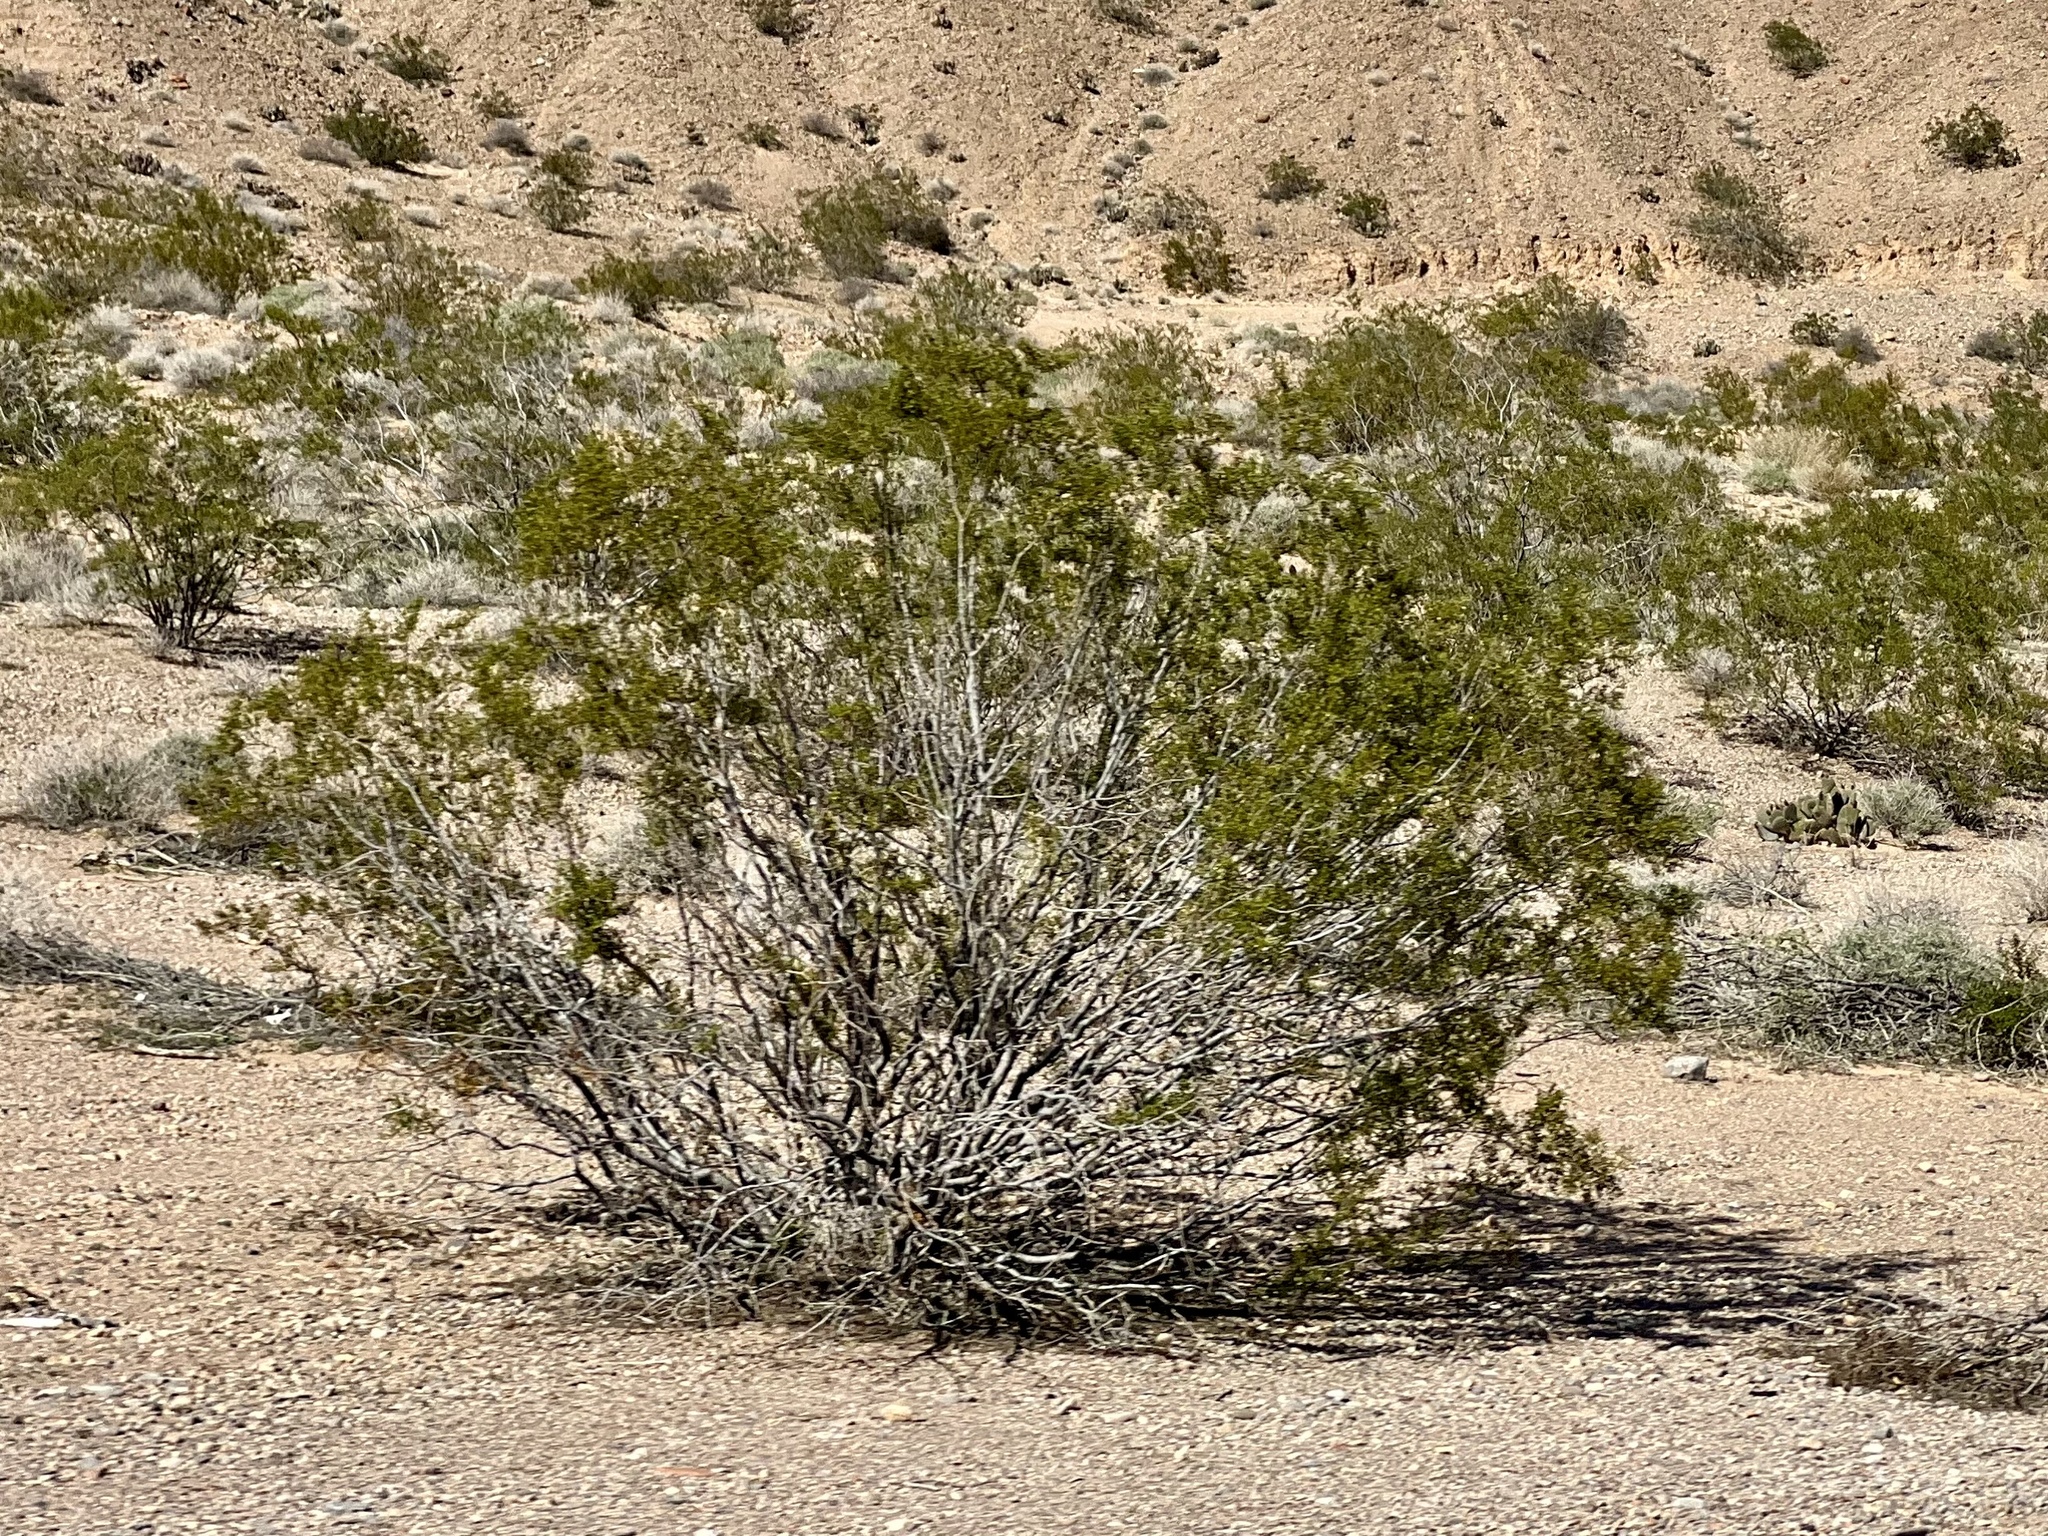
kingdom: Plantae
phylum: Tracheophyta
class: Magnoliopsida
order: Zygophyllales
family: Zygophyllaceae
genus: Larrea
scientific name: Larrea tridentata
